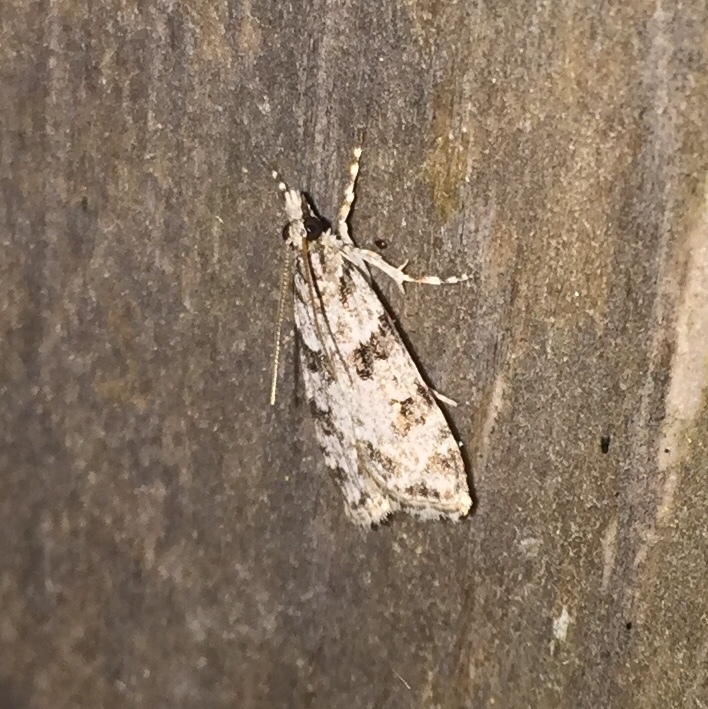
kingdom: Animalia
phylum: Arthropoda
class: Insecta
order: Lepidoptera
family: Crambidae
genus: Scoparia
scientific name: Scoparia biplagialis
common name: Double-striped scoparia moth
